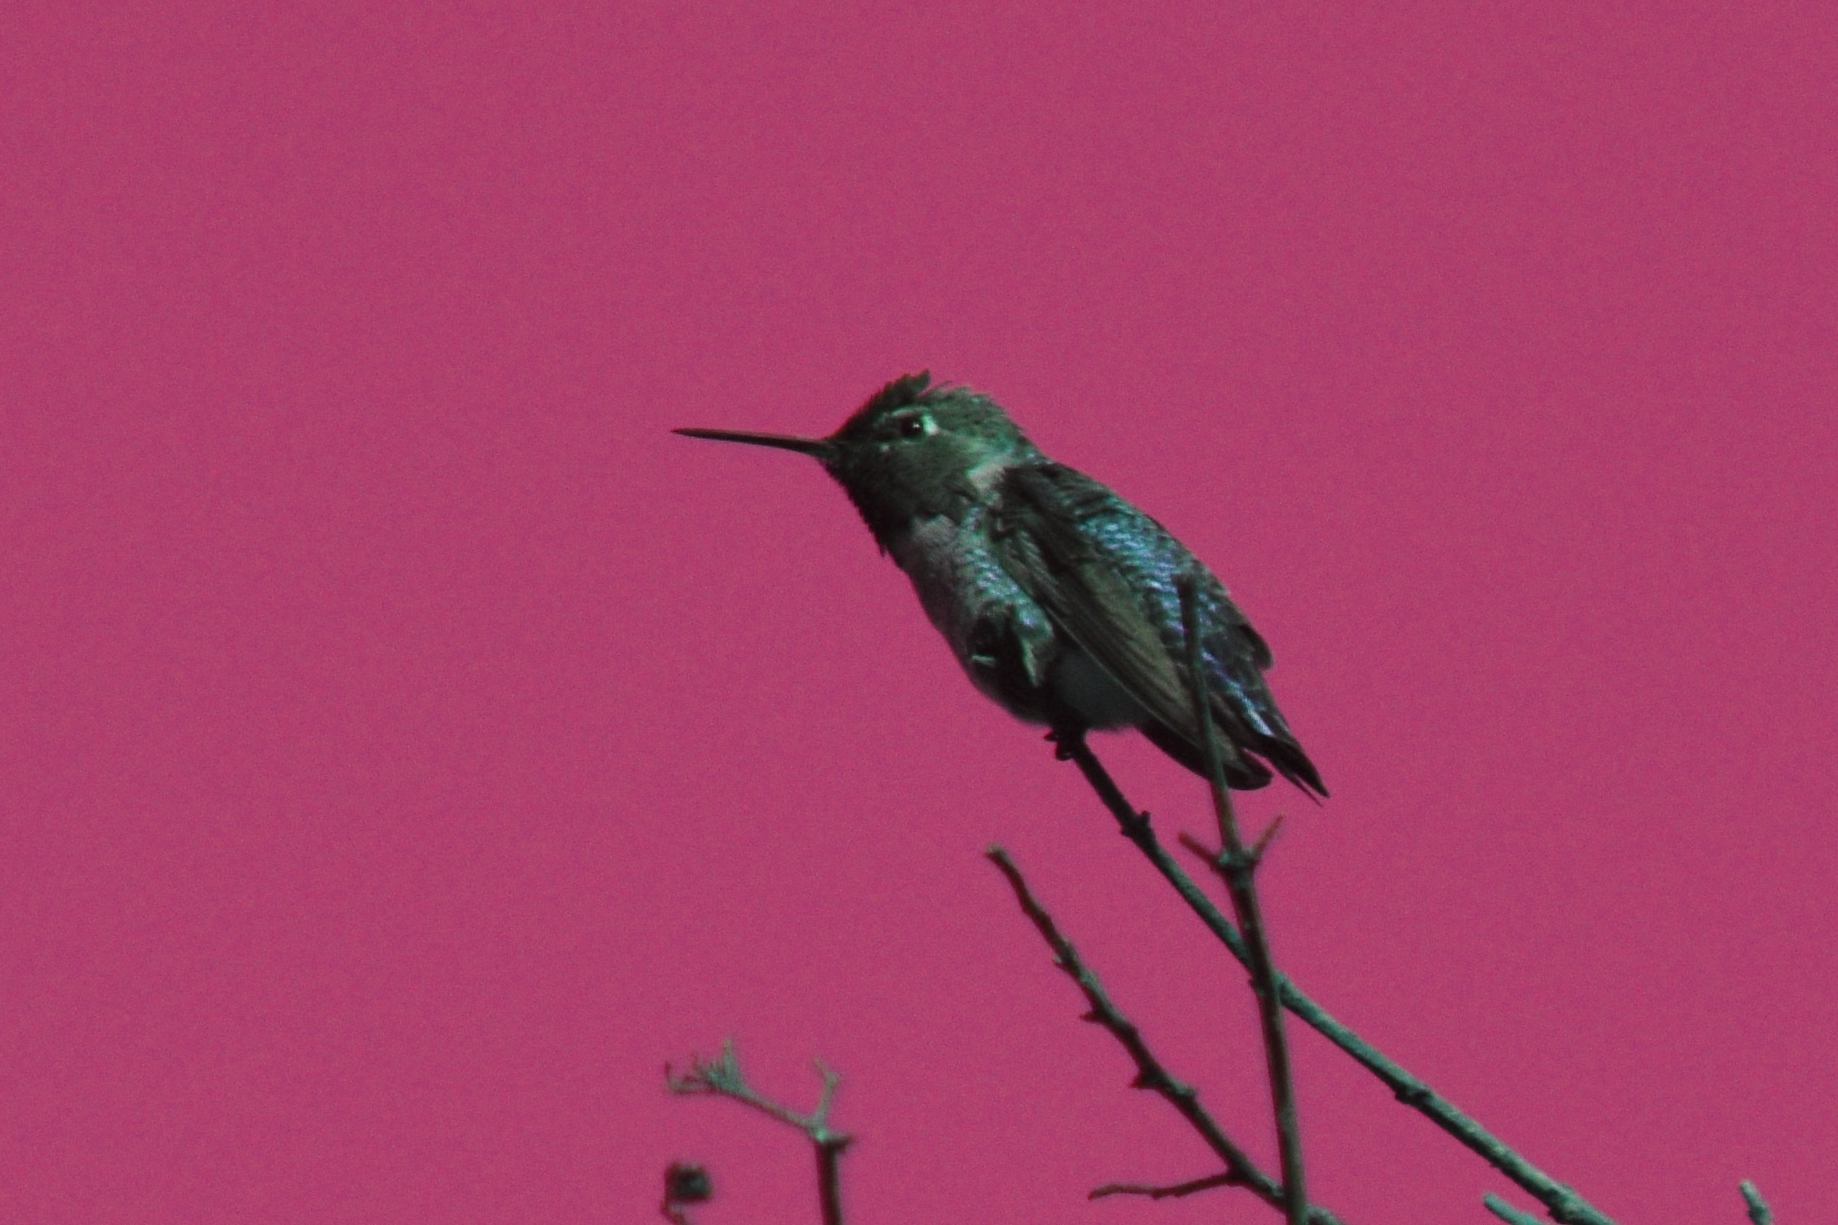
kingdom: Animalia
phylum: Chordata
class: Aves
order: Apodiformes
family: Trochilidae
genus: Calypte
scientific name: Calypte anna
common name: Anna's hummingbird
